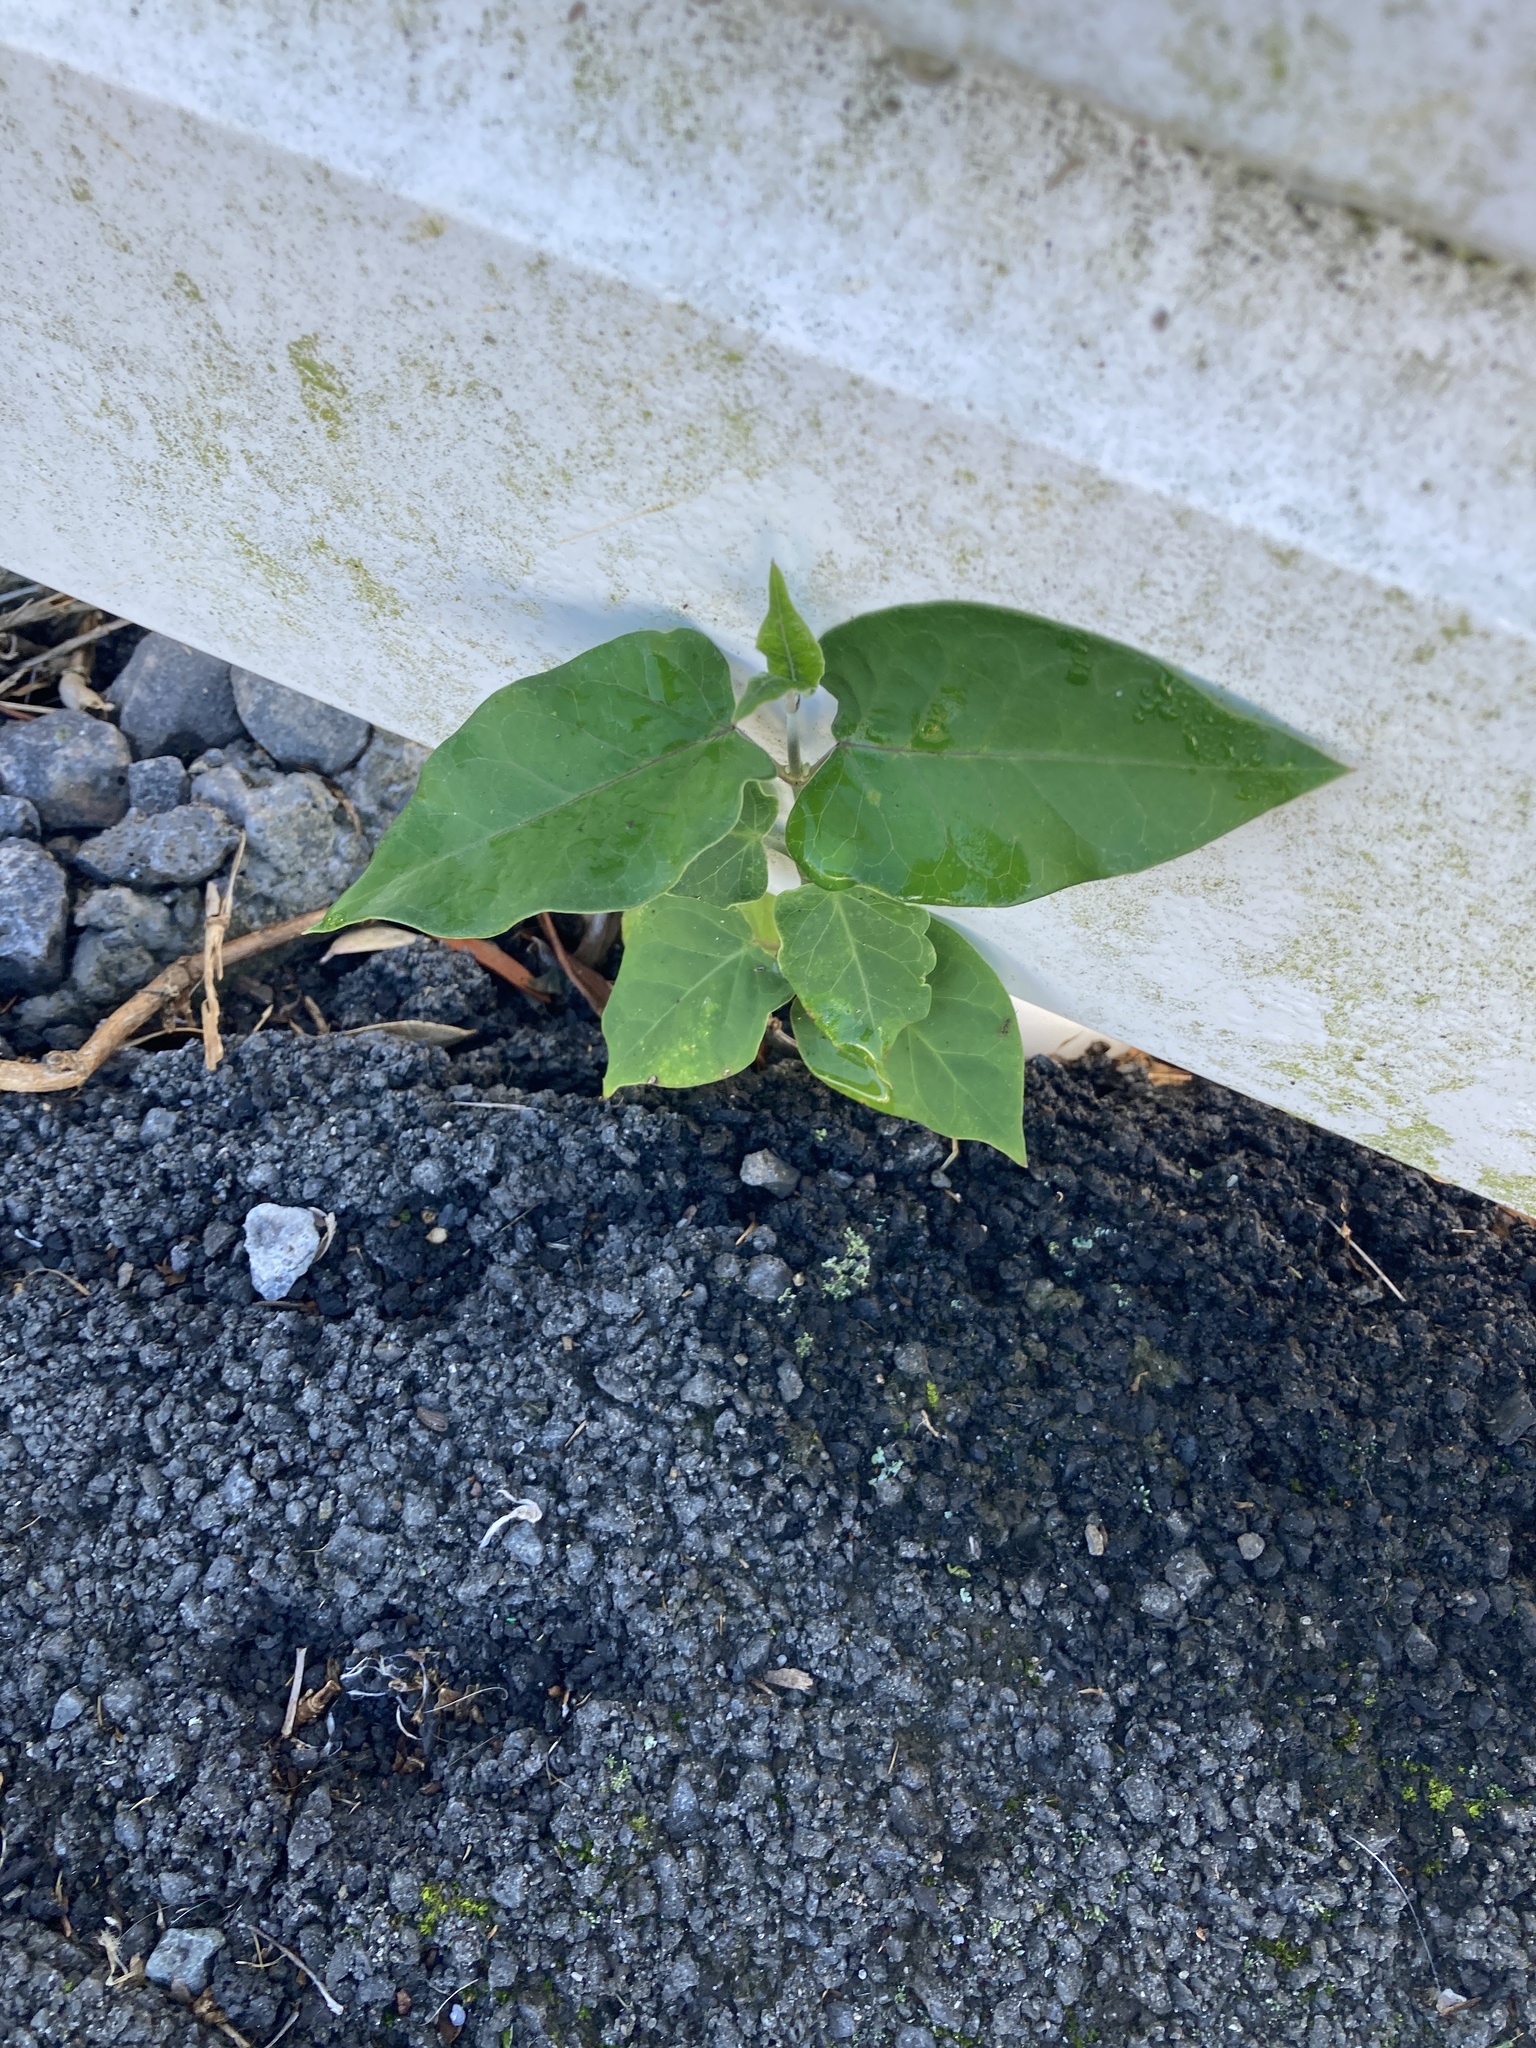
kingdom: Plantae
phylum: Tracheophyta
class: Magnoliopsida
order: Gentianales
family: Apocynaceae
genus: Araujia
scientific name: Araujia sericifera
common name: White bladderflower
